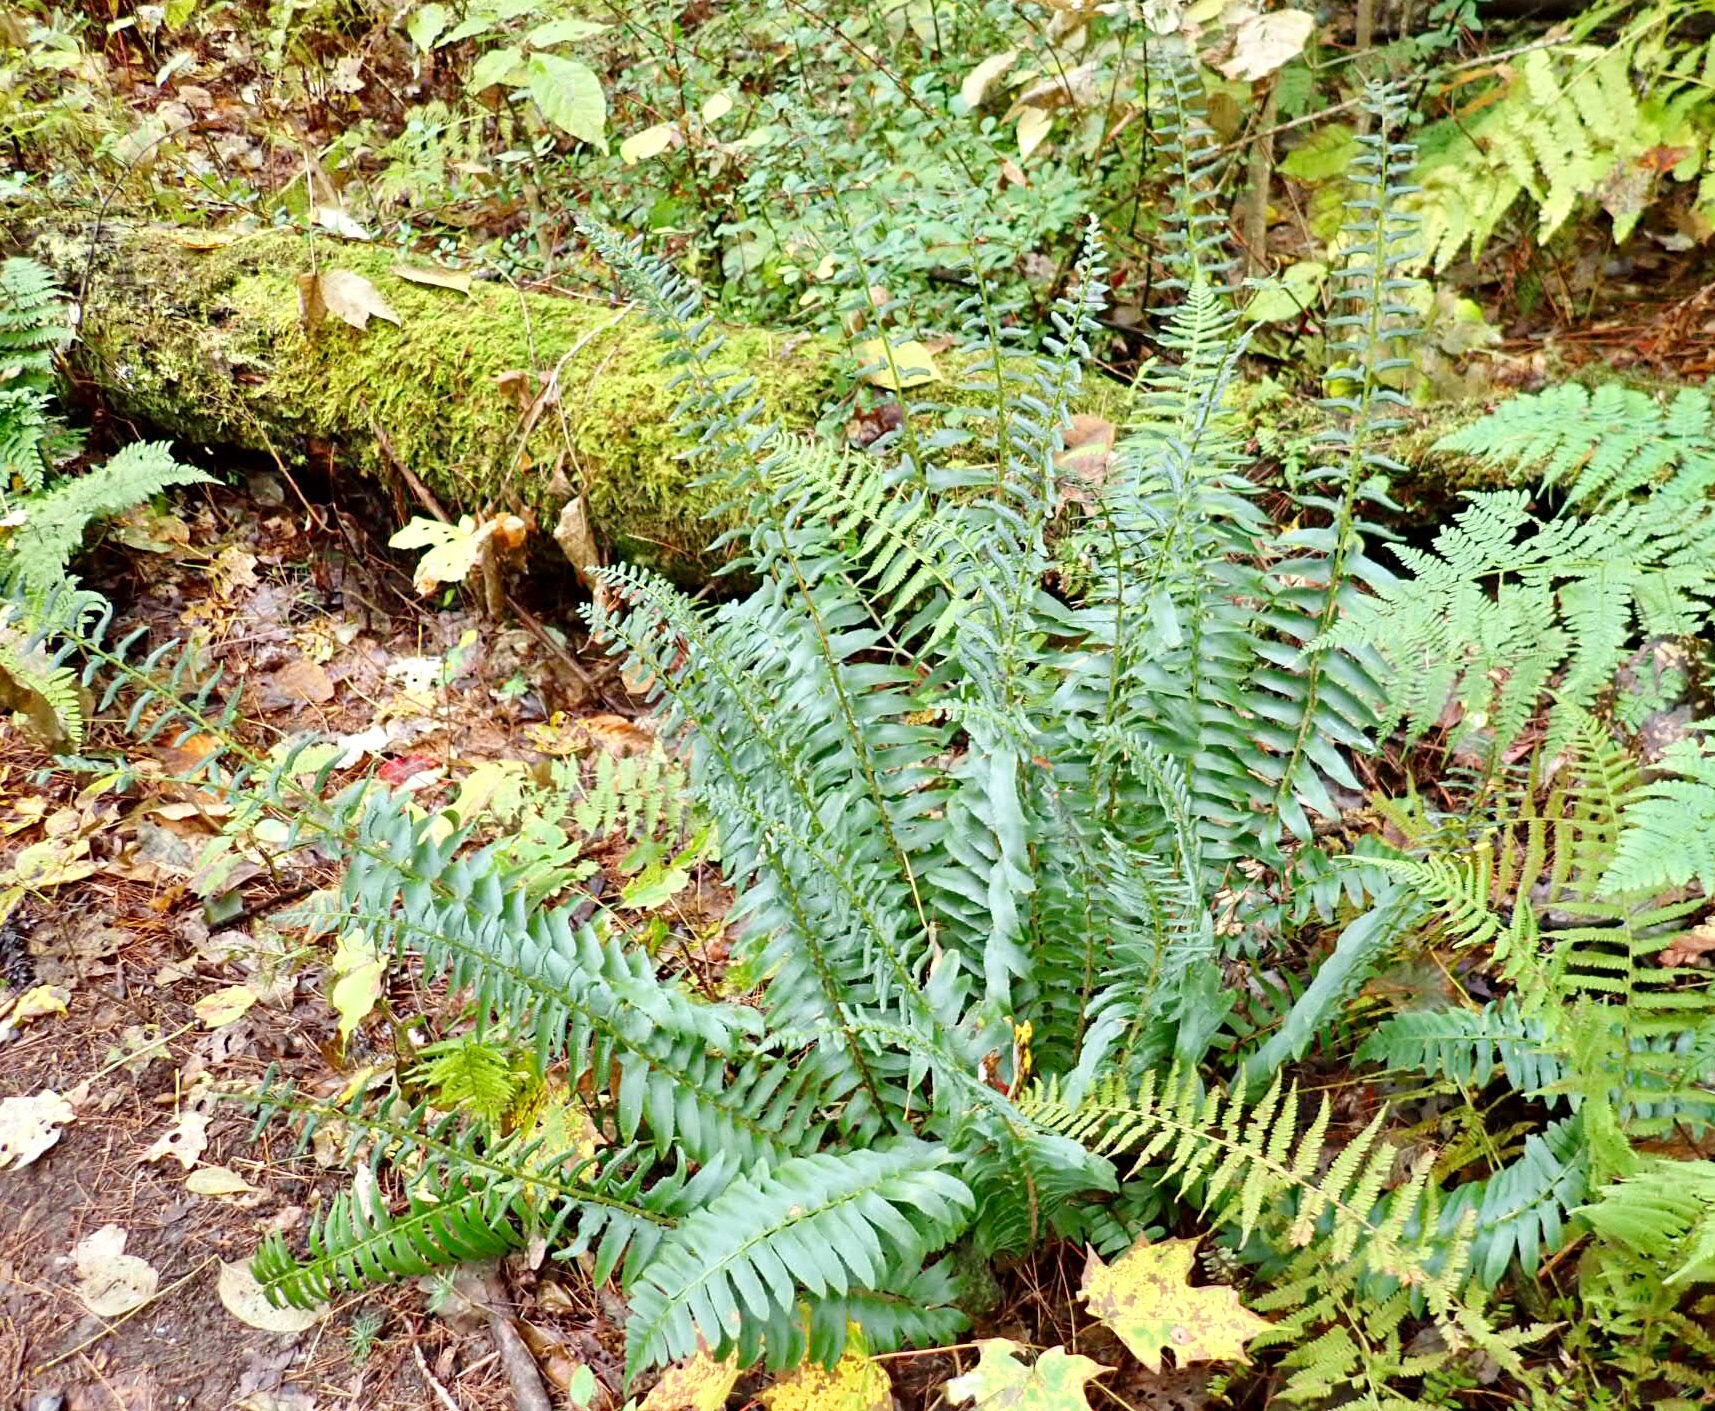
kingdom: Plantae
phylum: Tracheophyta
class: Polypodiopsida
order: Polypodiales
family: Dryopteridaceae
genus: Polystichum
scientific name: Polystichum acrostichoides
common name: Christmas fern
